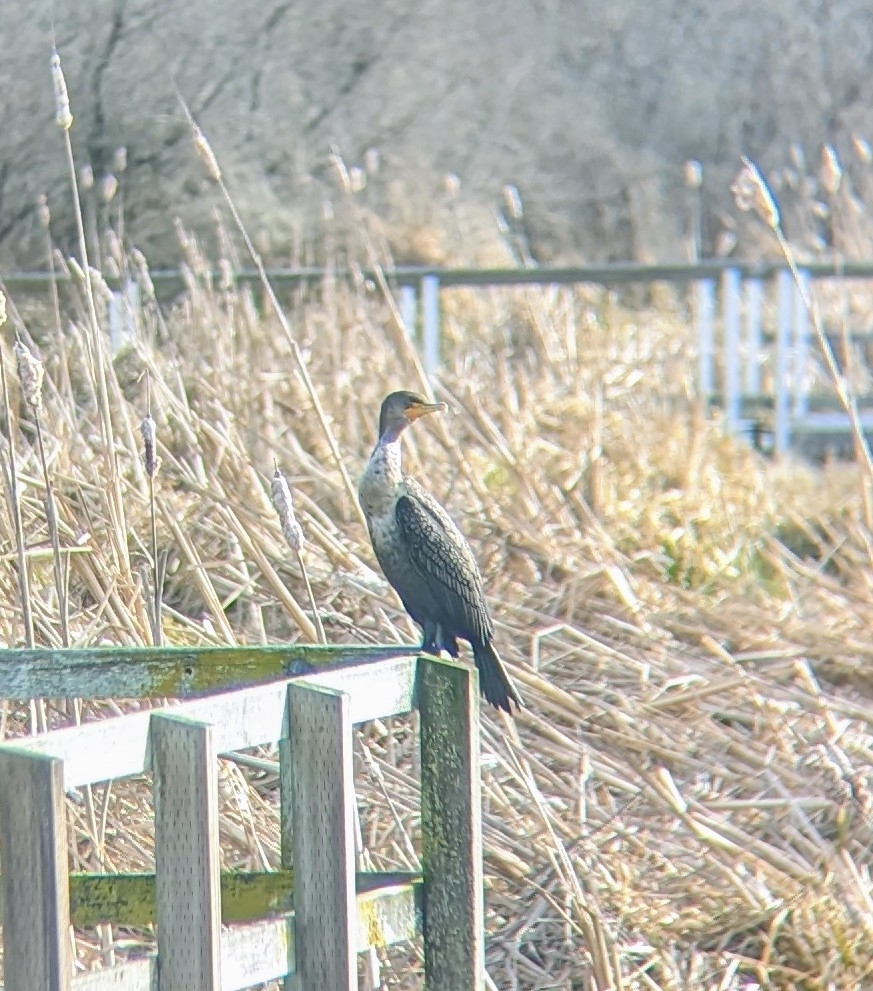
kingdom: Animalia
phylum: Chordata
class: Aves
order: Suliformes
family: Phalacrocoracidae
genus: Phalacrocorax
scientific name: Phalacrocorax auritus
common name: Double-crested cormorant
